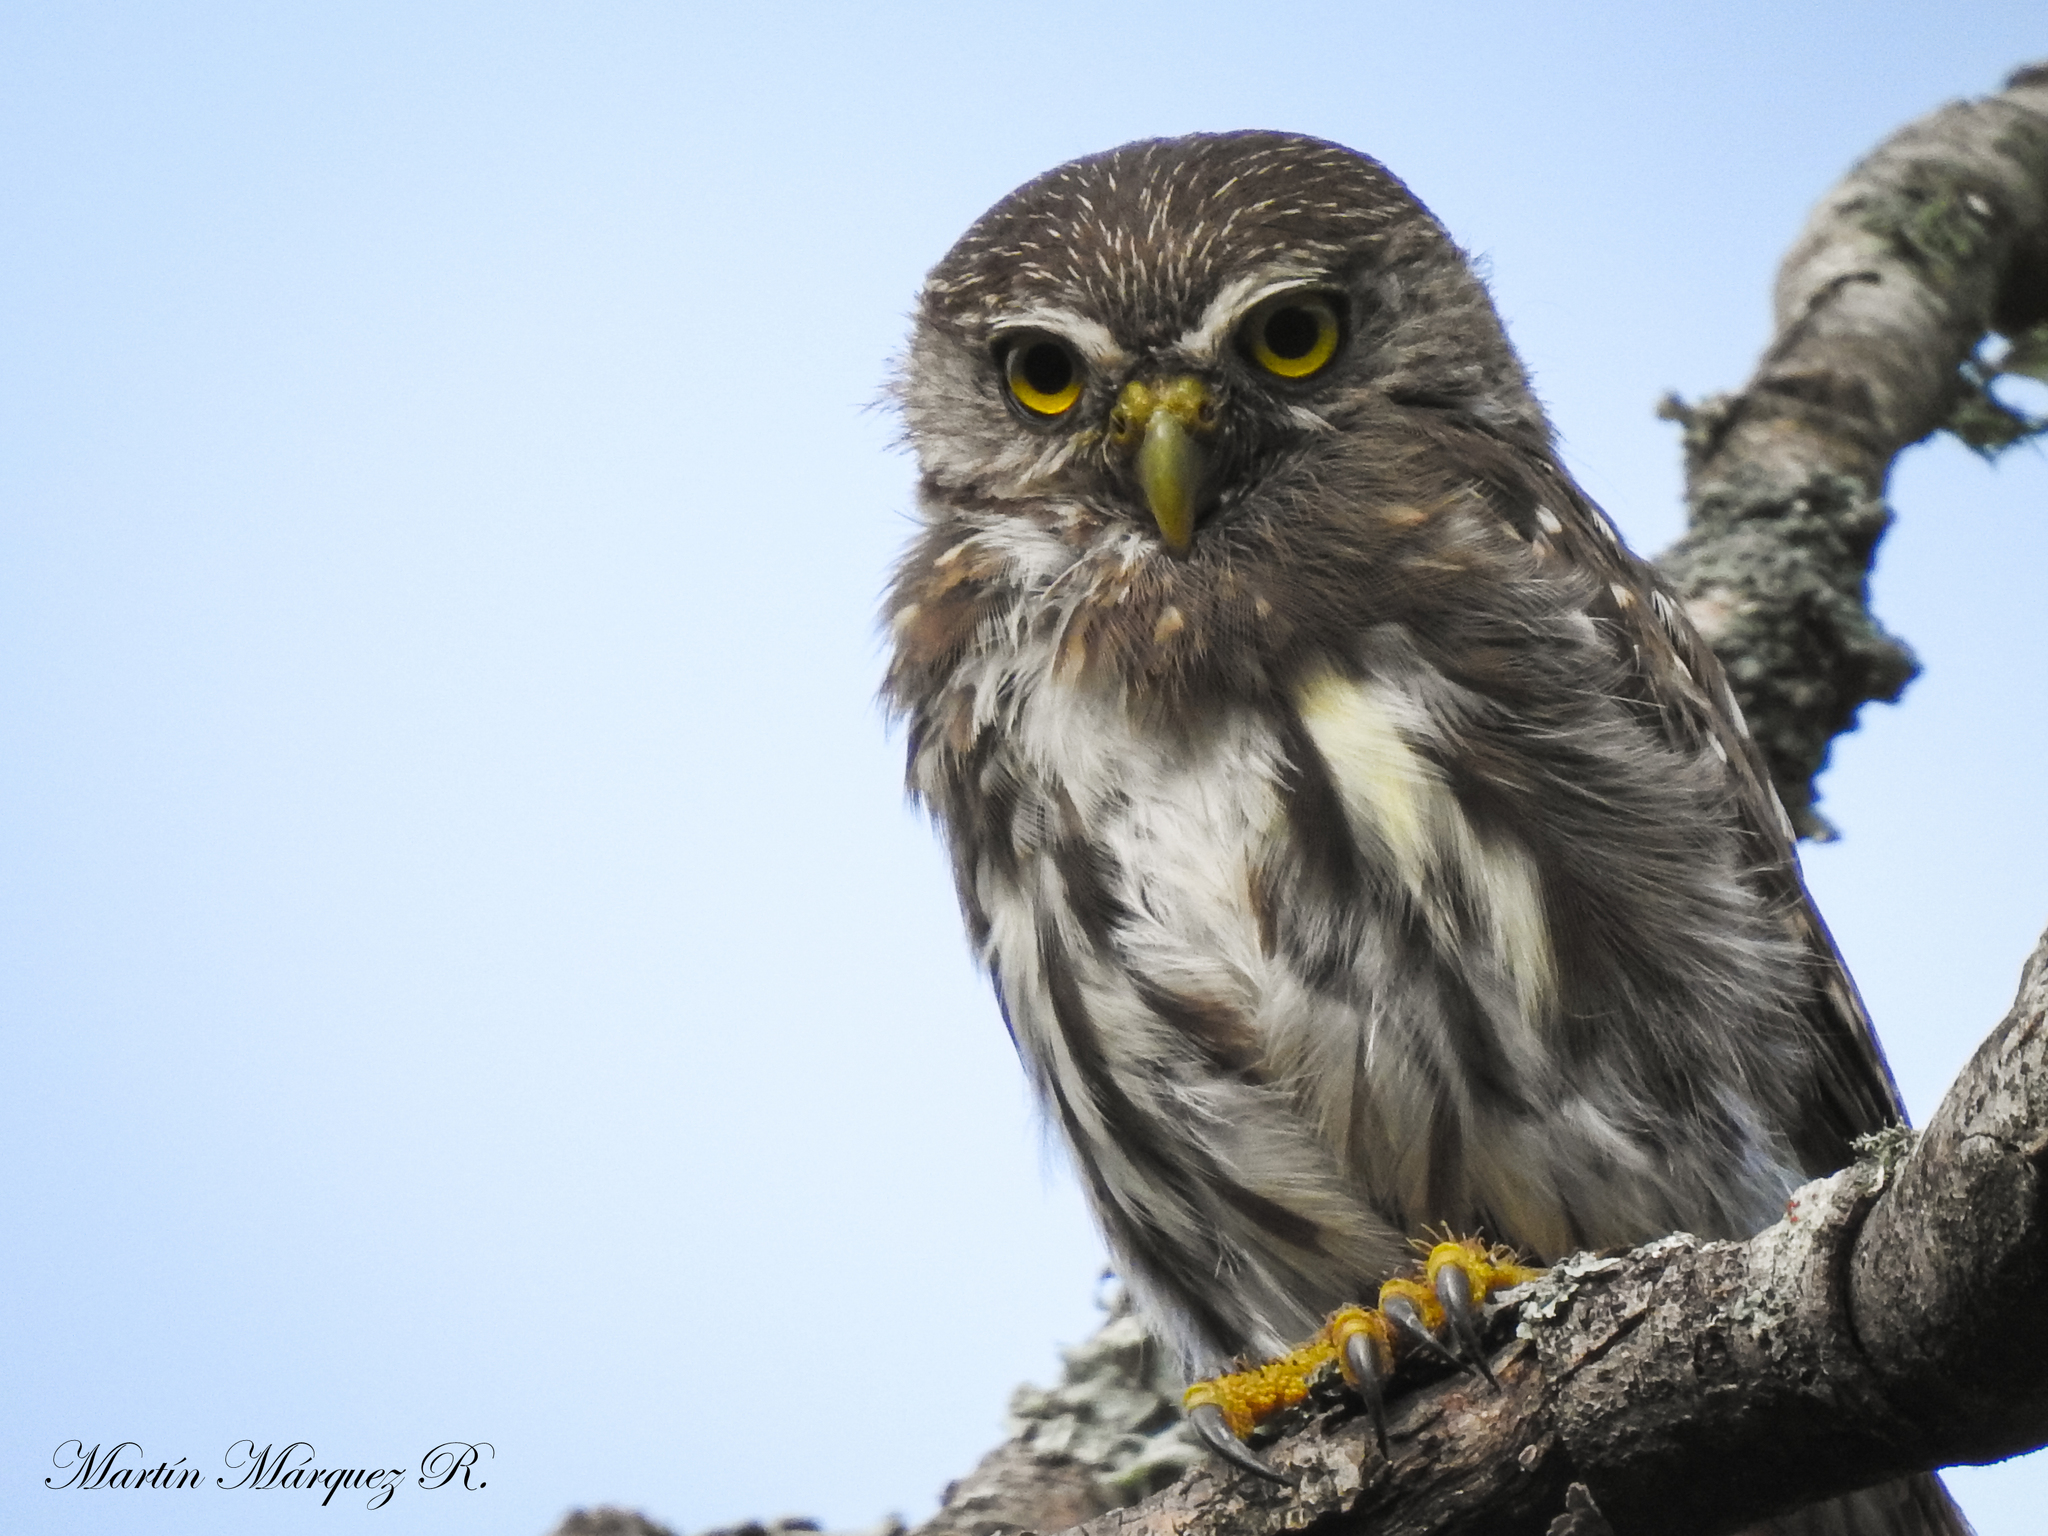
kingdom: Animalia
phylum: Chordata
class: Aves
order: Strigiformes
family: Strigidae
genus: Glaucidium
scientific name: Glaucidium brasilianum
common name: Ferruginous pygmy-owl
